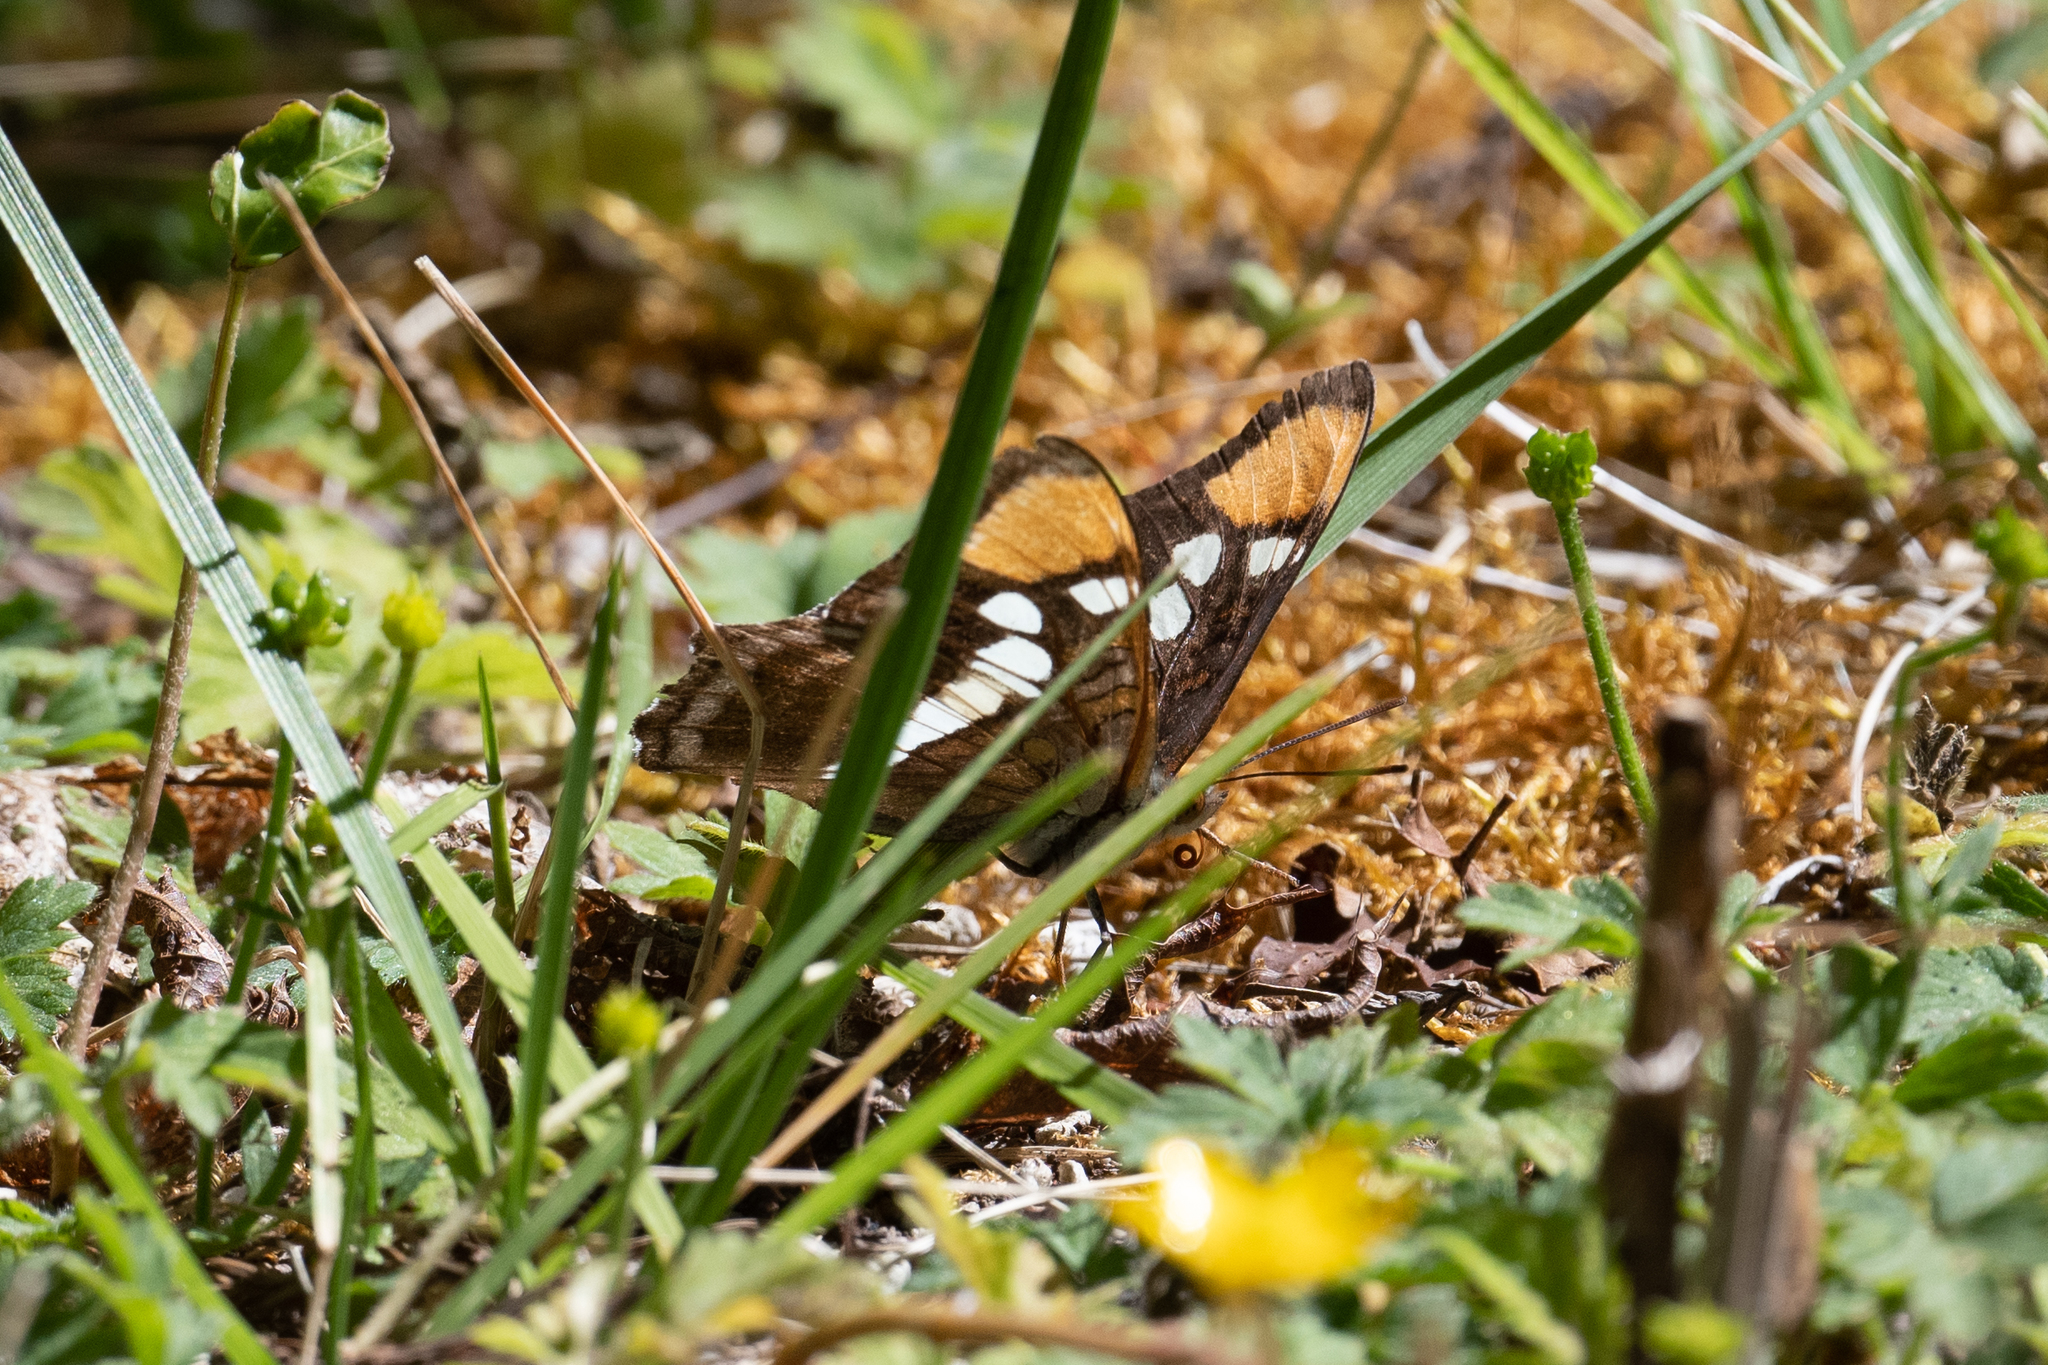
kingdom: Animalia
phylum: Arthropoda
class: Insecta
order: Lepidoptera
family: Nymphalidae
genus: Limenitis
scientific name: Limenitis bredowii
